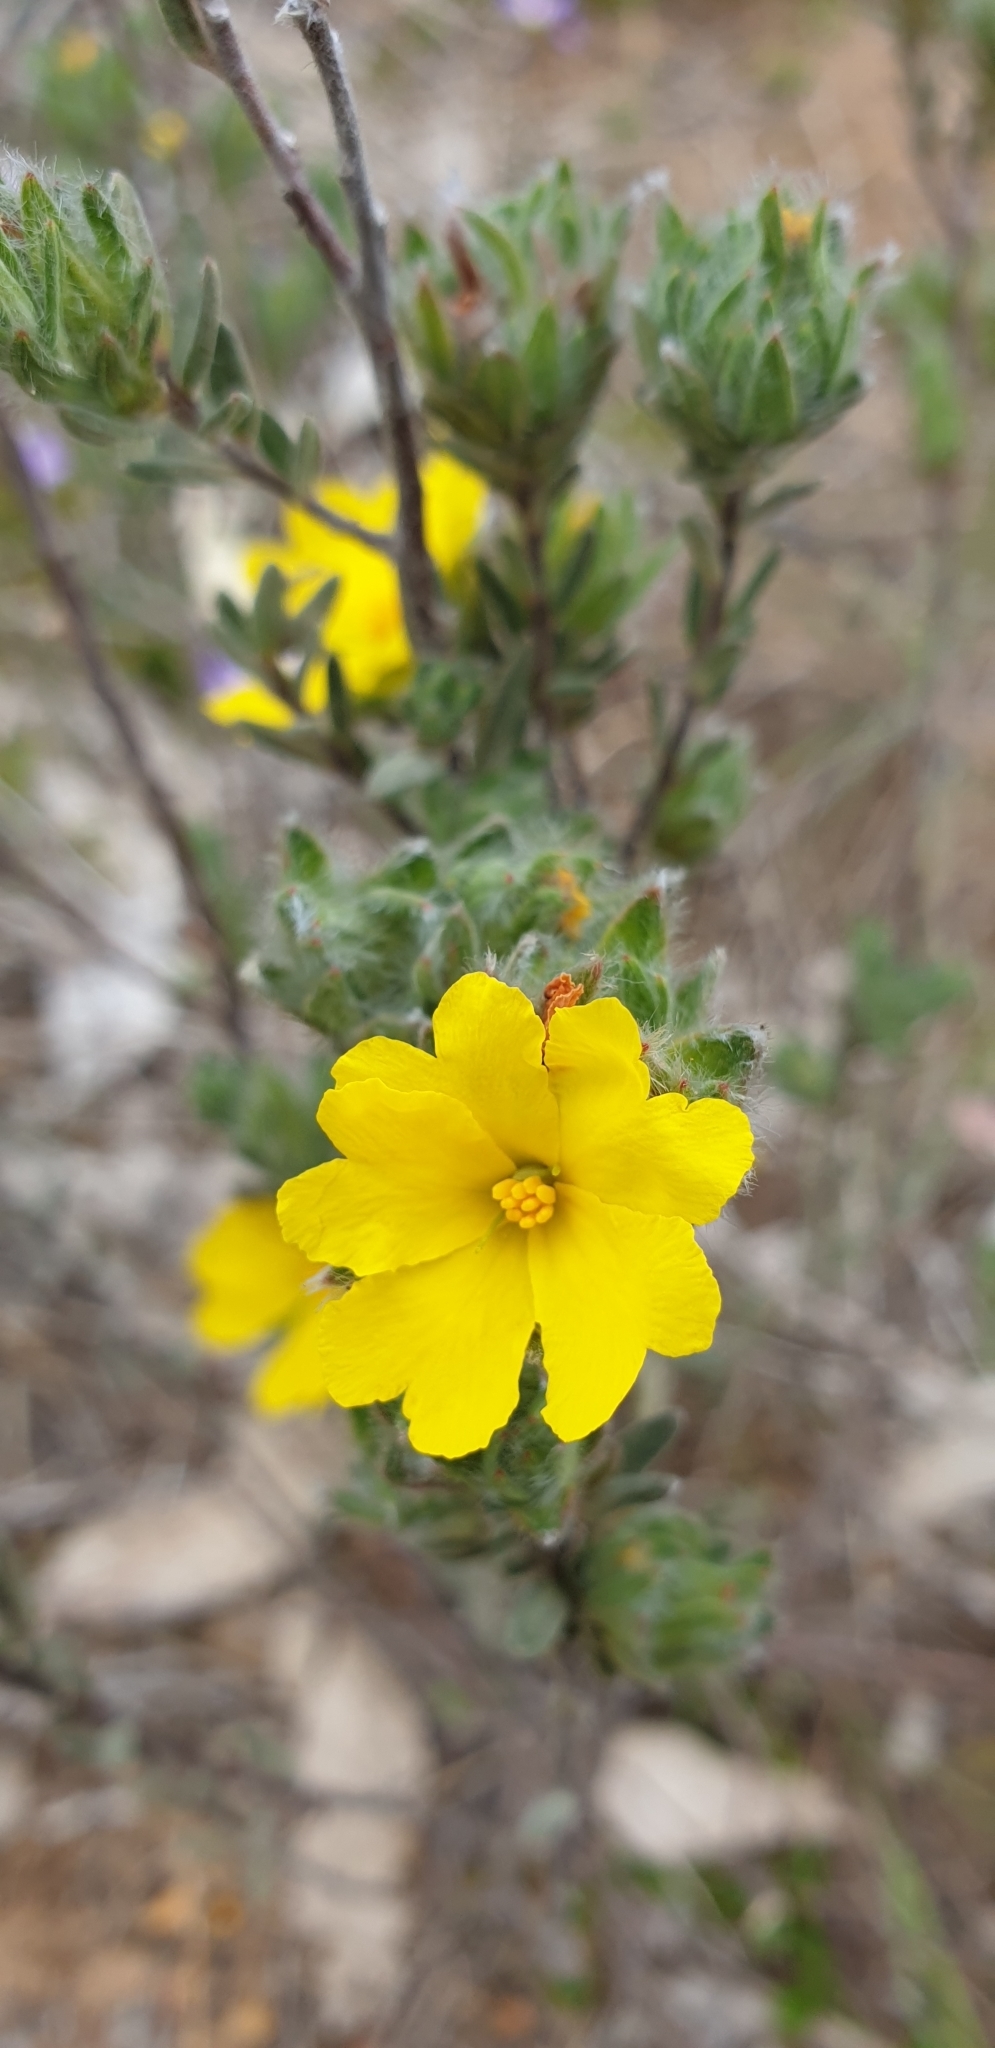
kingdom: Plantae
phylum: Tracheophyta
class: Magnoliopsida
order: Dilleniales
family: Dilleniaceae
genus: Hibbertia
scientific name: Hibbertia crinita
